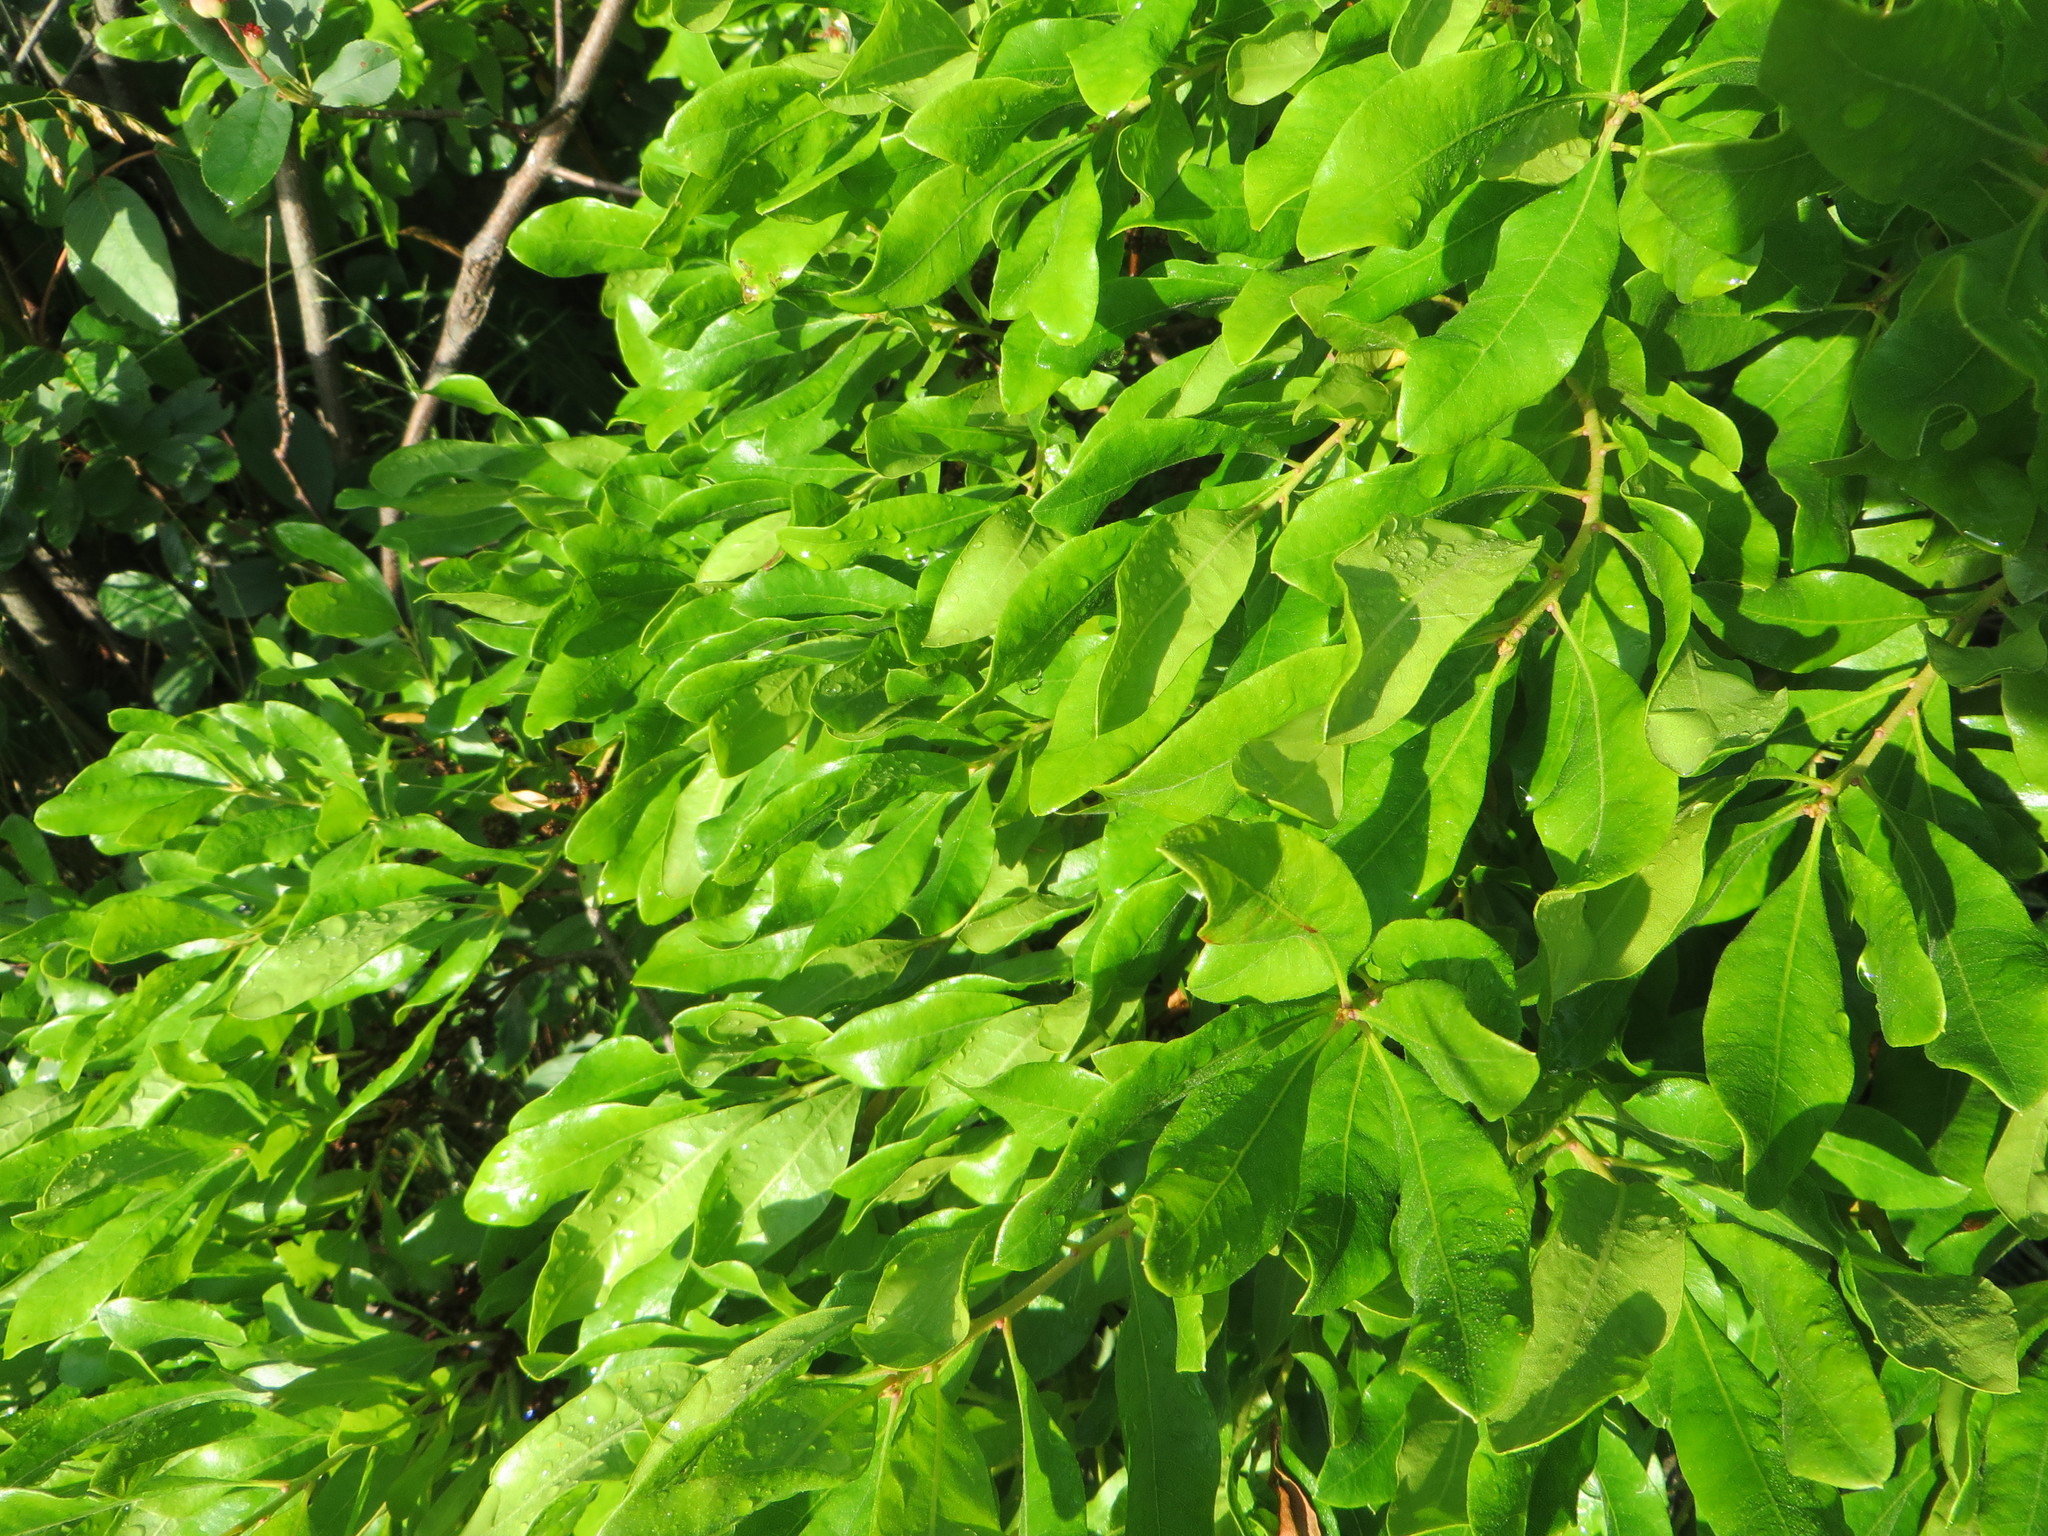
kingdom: Plantae
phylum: Tracheophyta
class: Magnoliopsida
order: Fagales
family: Myricaceae
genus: Morella
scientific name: Morella pensylvanica
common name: Northern bayberry
